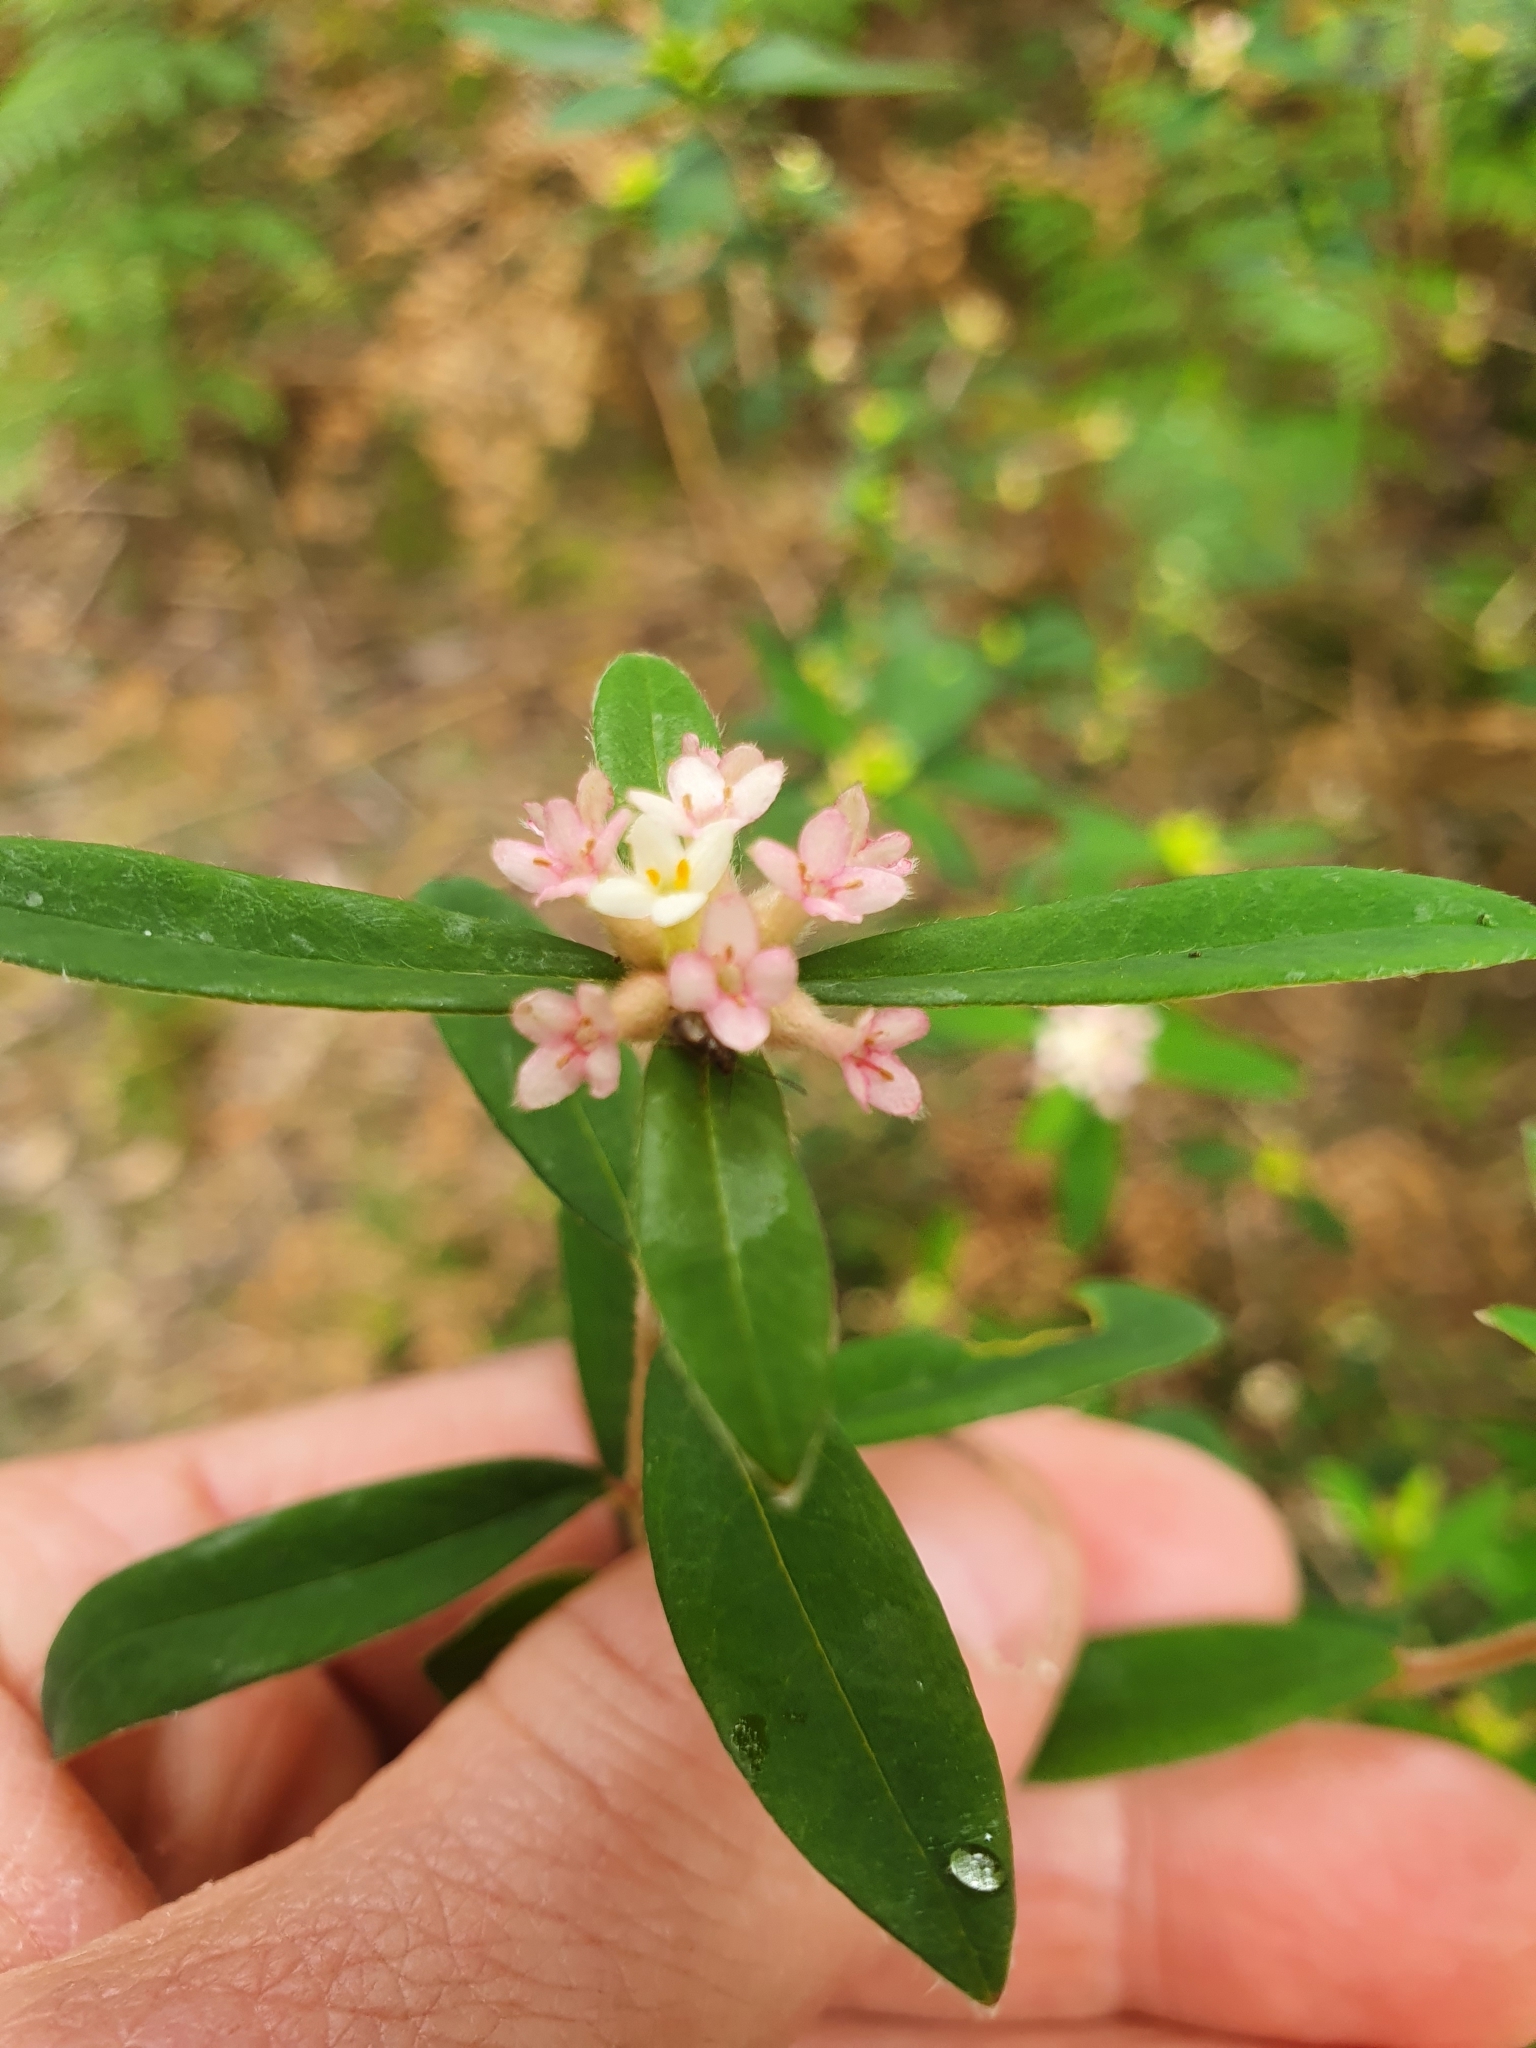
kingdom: Plantae
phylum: Tracheophyta
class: Magnoliopsida
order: Malvales
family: Thymelaeaceae
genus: Pimelea
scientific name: Pimelea drupacea
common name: Cherry riceflower
